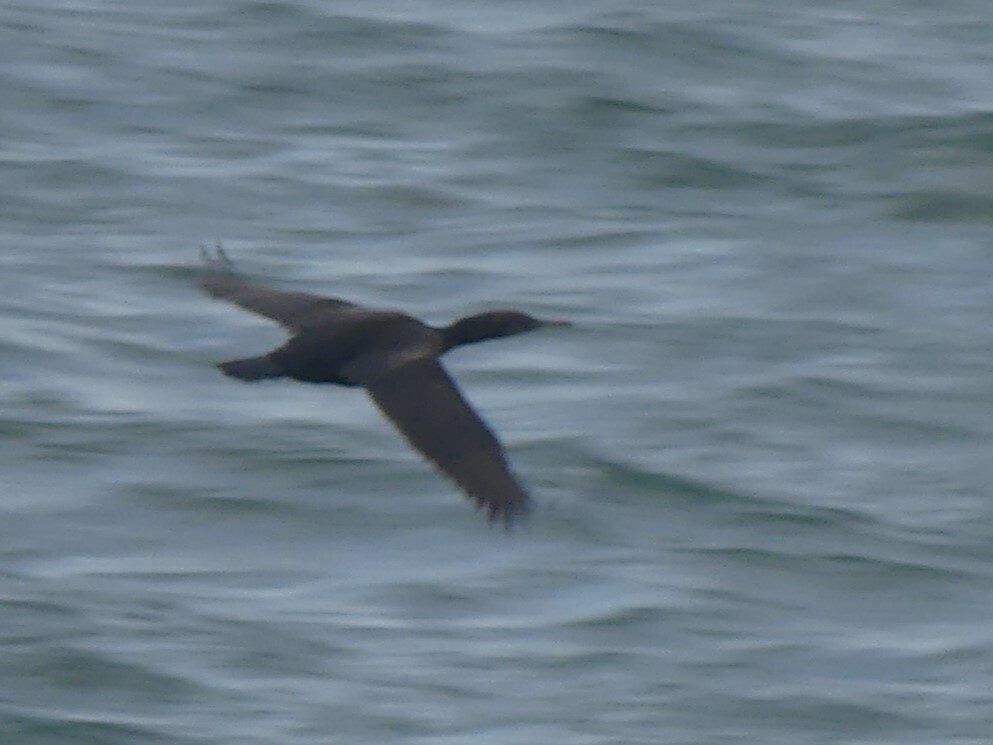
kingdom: Animalia
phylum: Chordata
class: Aves
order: Suliformes
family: Phalacrocoracidae
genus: Phalacrocorax
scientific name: Phalacrocorax pelagicus
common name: Pelagic cormorant
